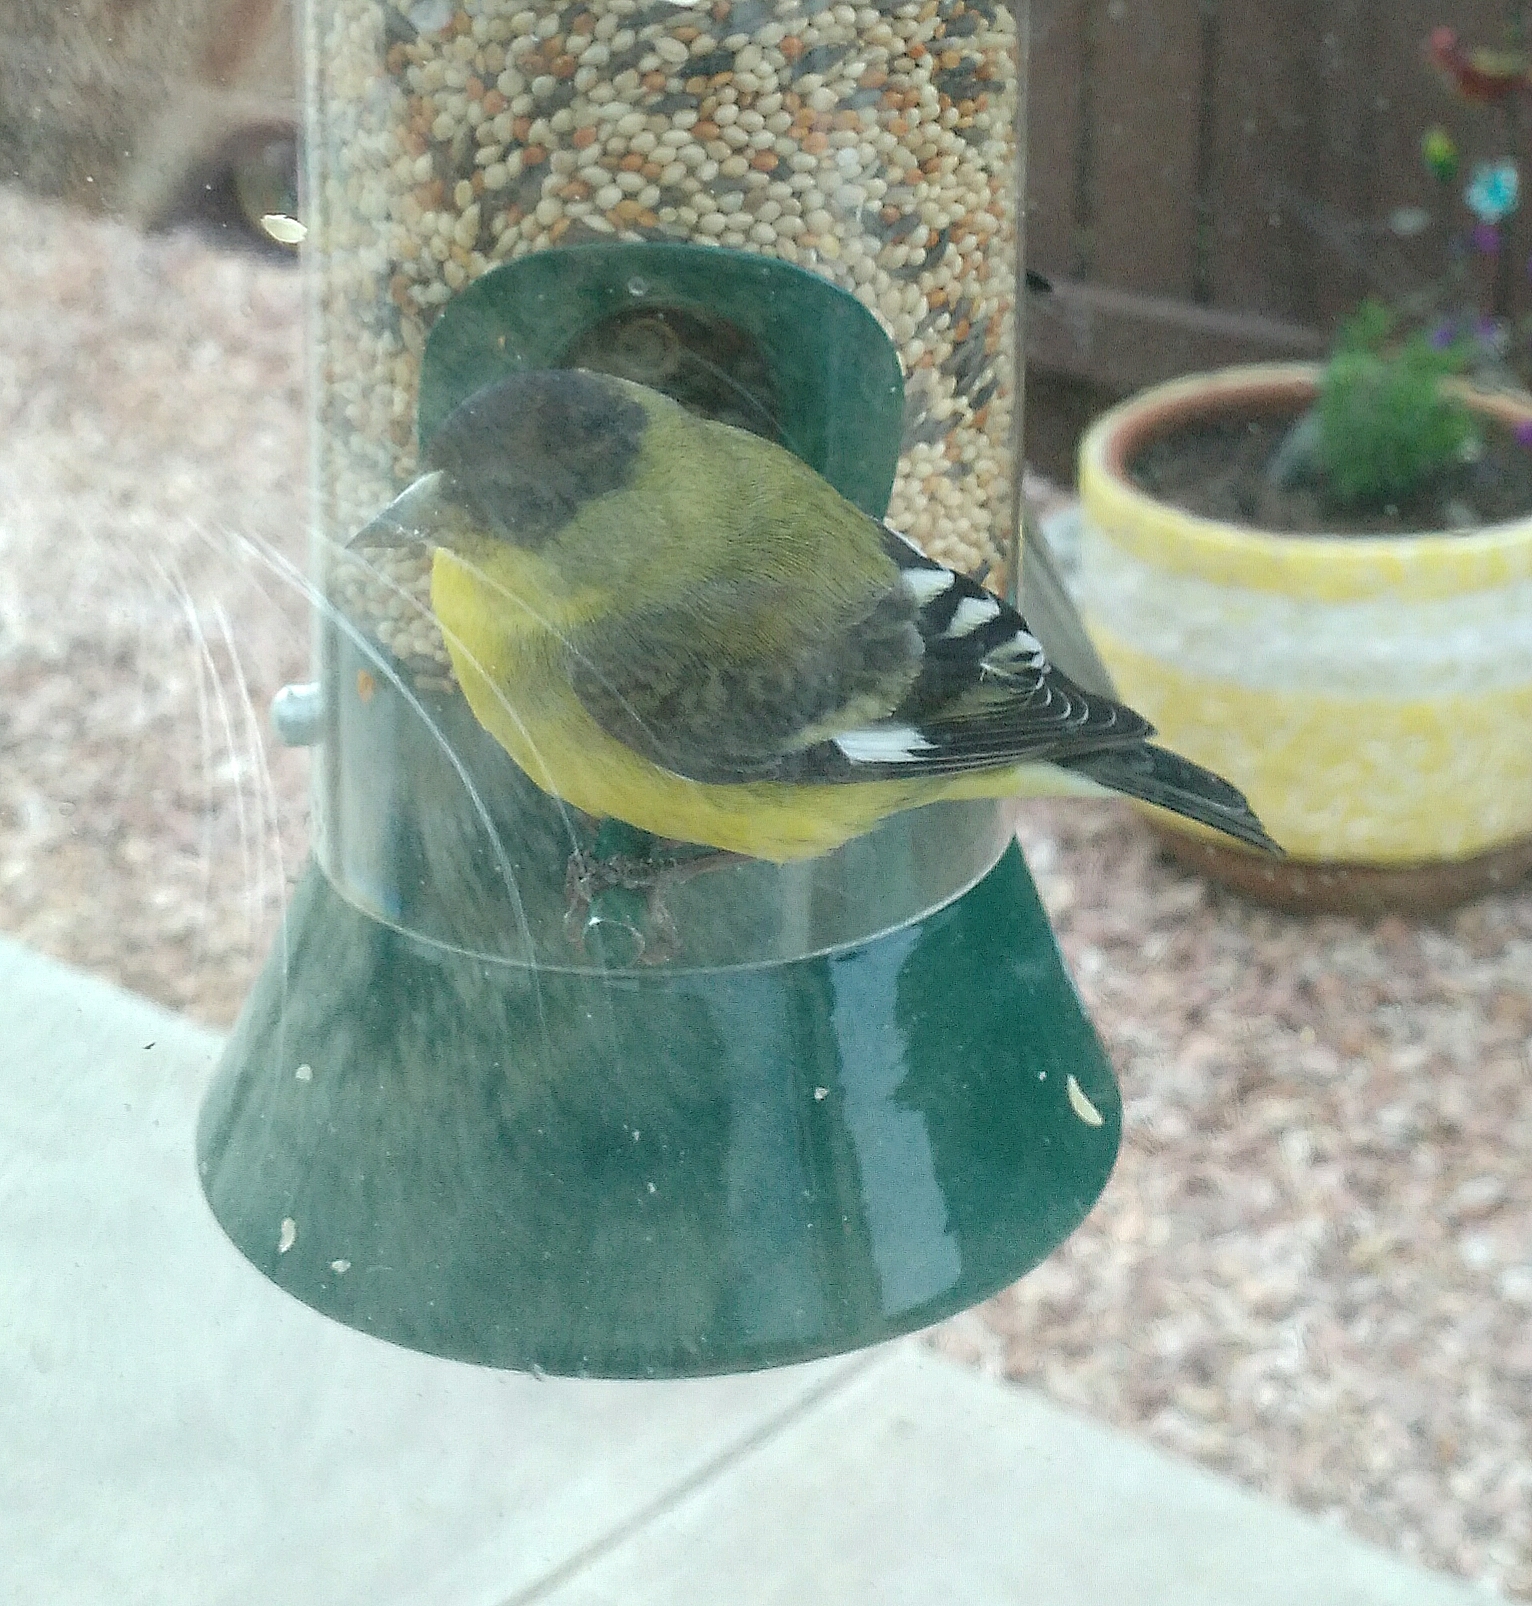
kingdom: Animalia
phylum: Chordata
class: Aves
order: Passeriformes
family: Fringillidae
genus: Spinus
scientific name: Spinus psaltria
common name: Lesser goldfinch
